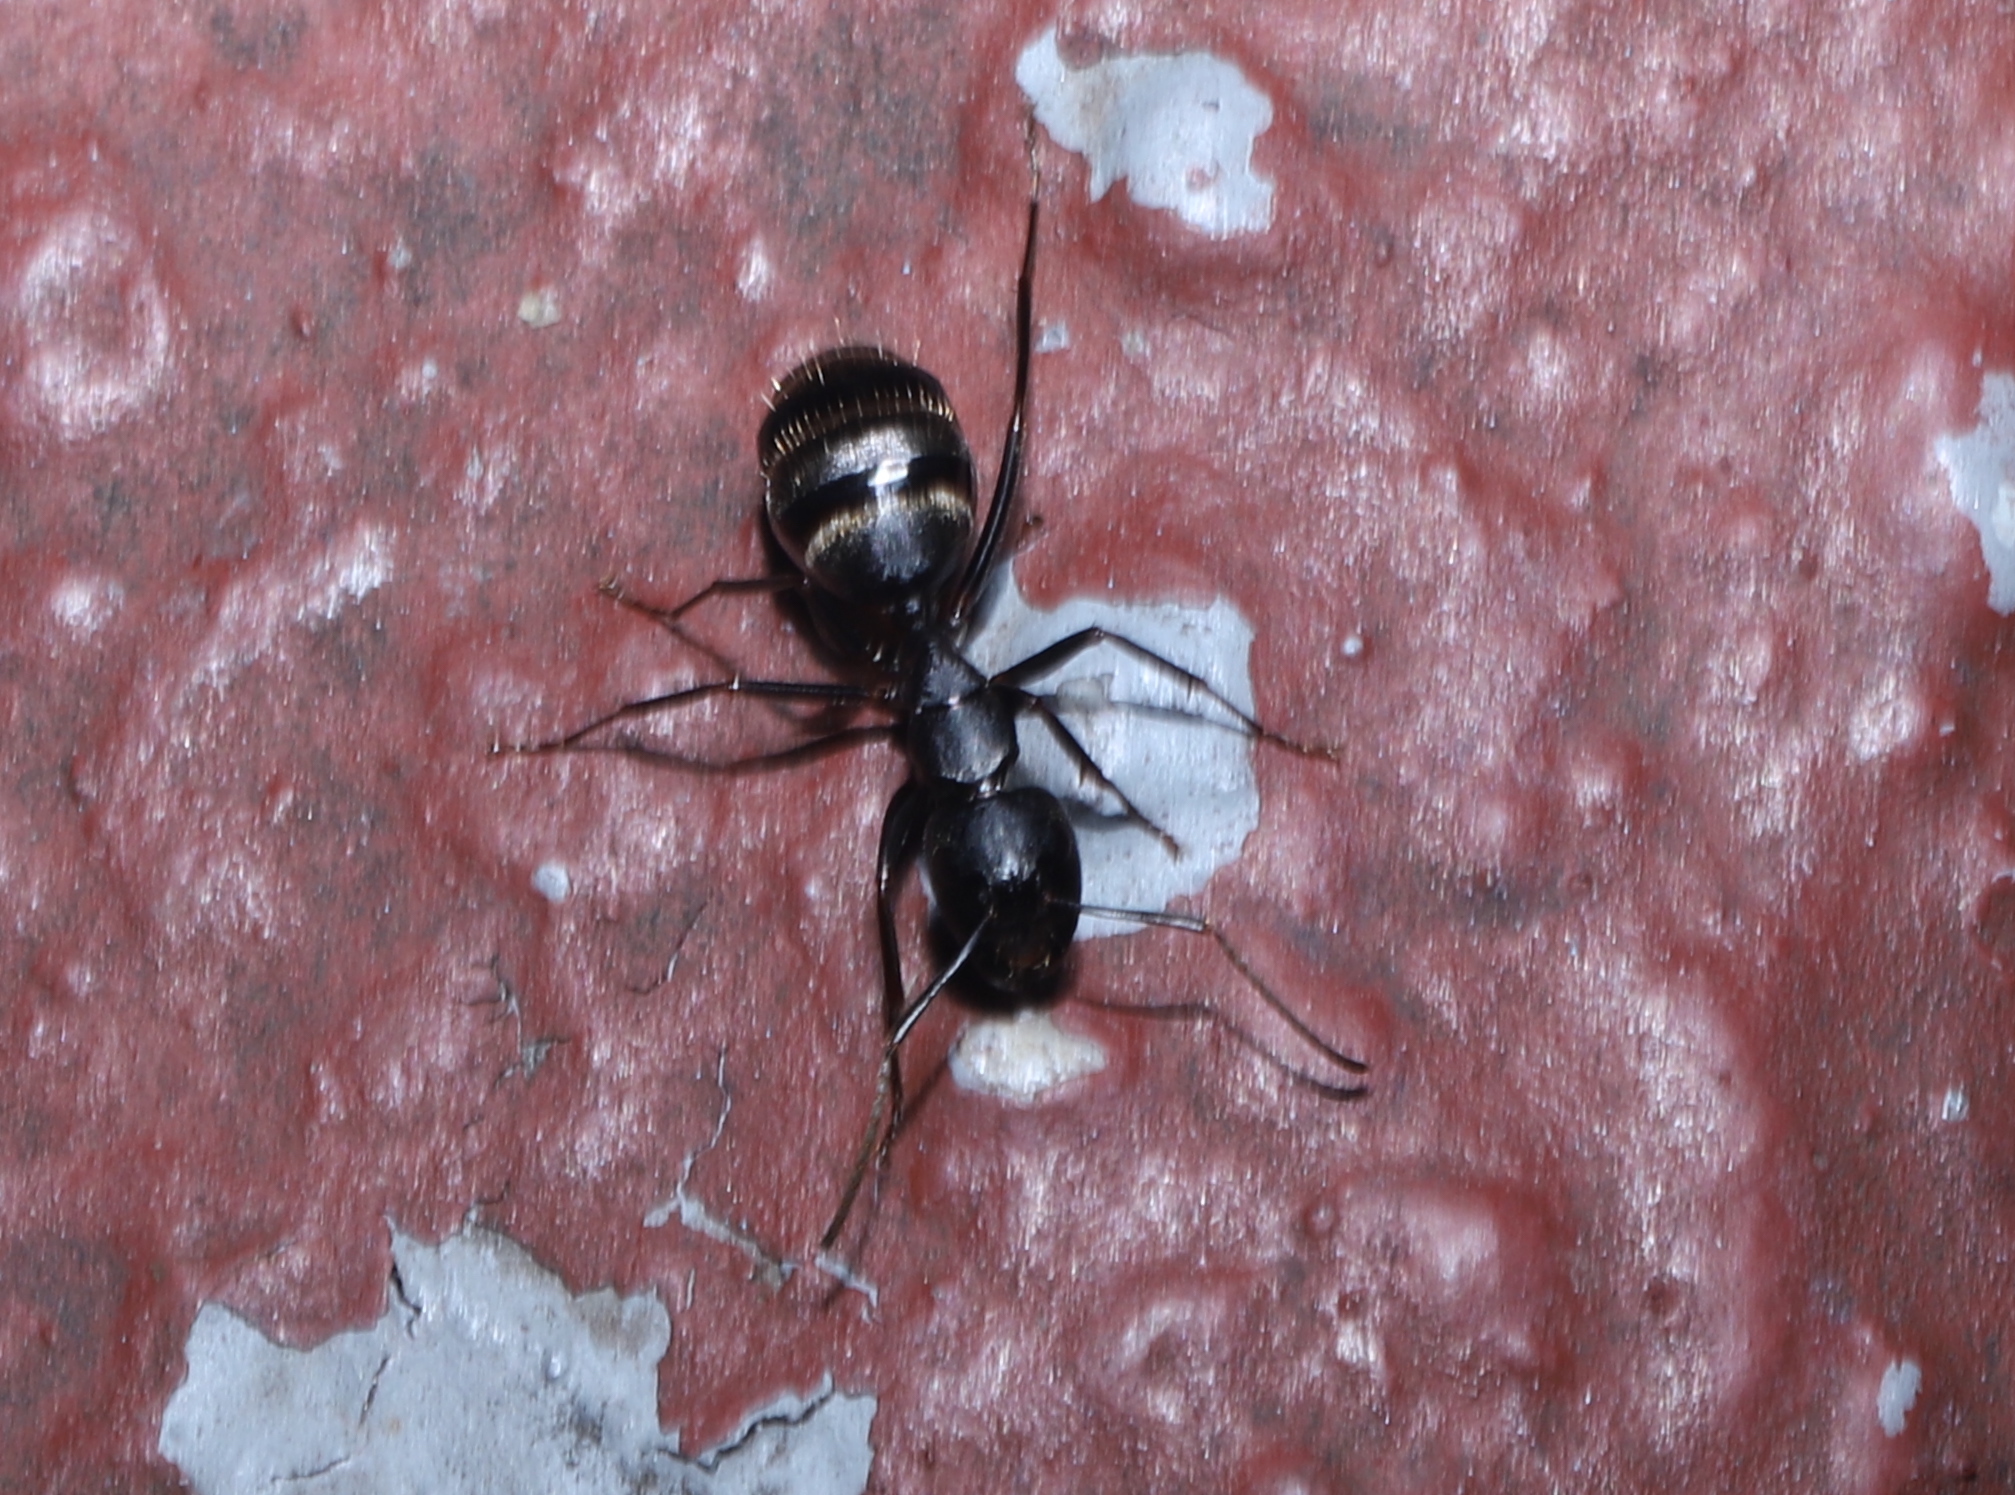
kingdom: Animalia
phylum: Arthropoda
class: Insecta
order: Hymenoptera
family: Formicidae
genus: Camponotus
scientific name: Camponotus pennsylvanicus
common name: Black carpenter ant
